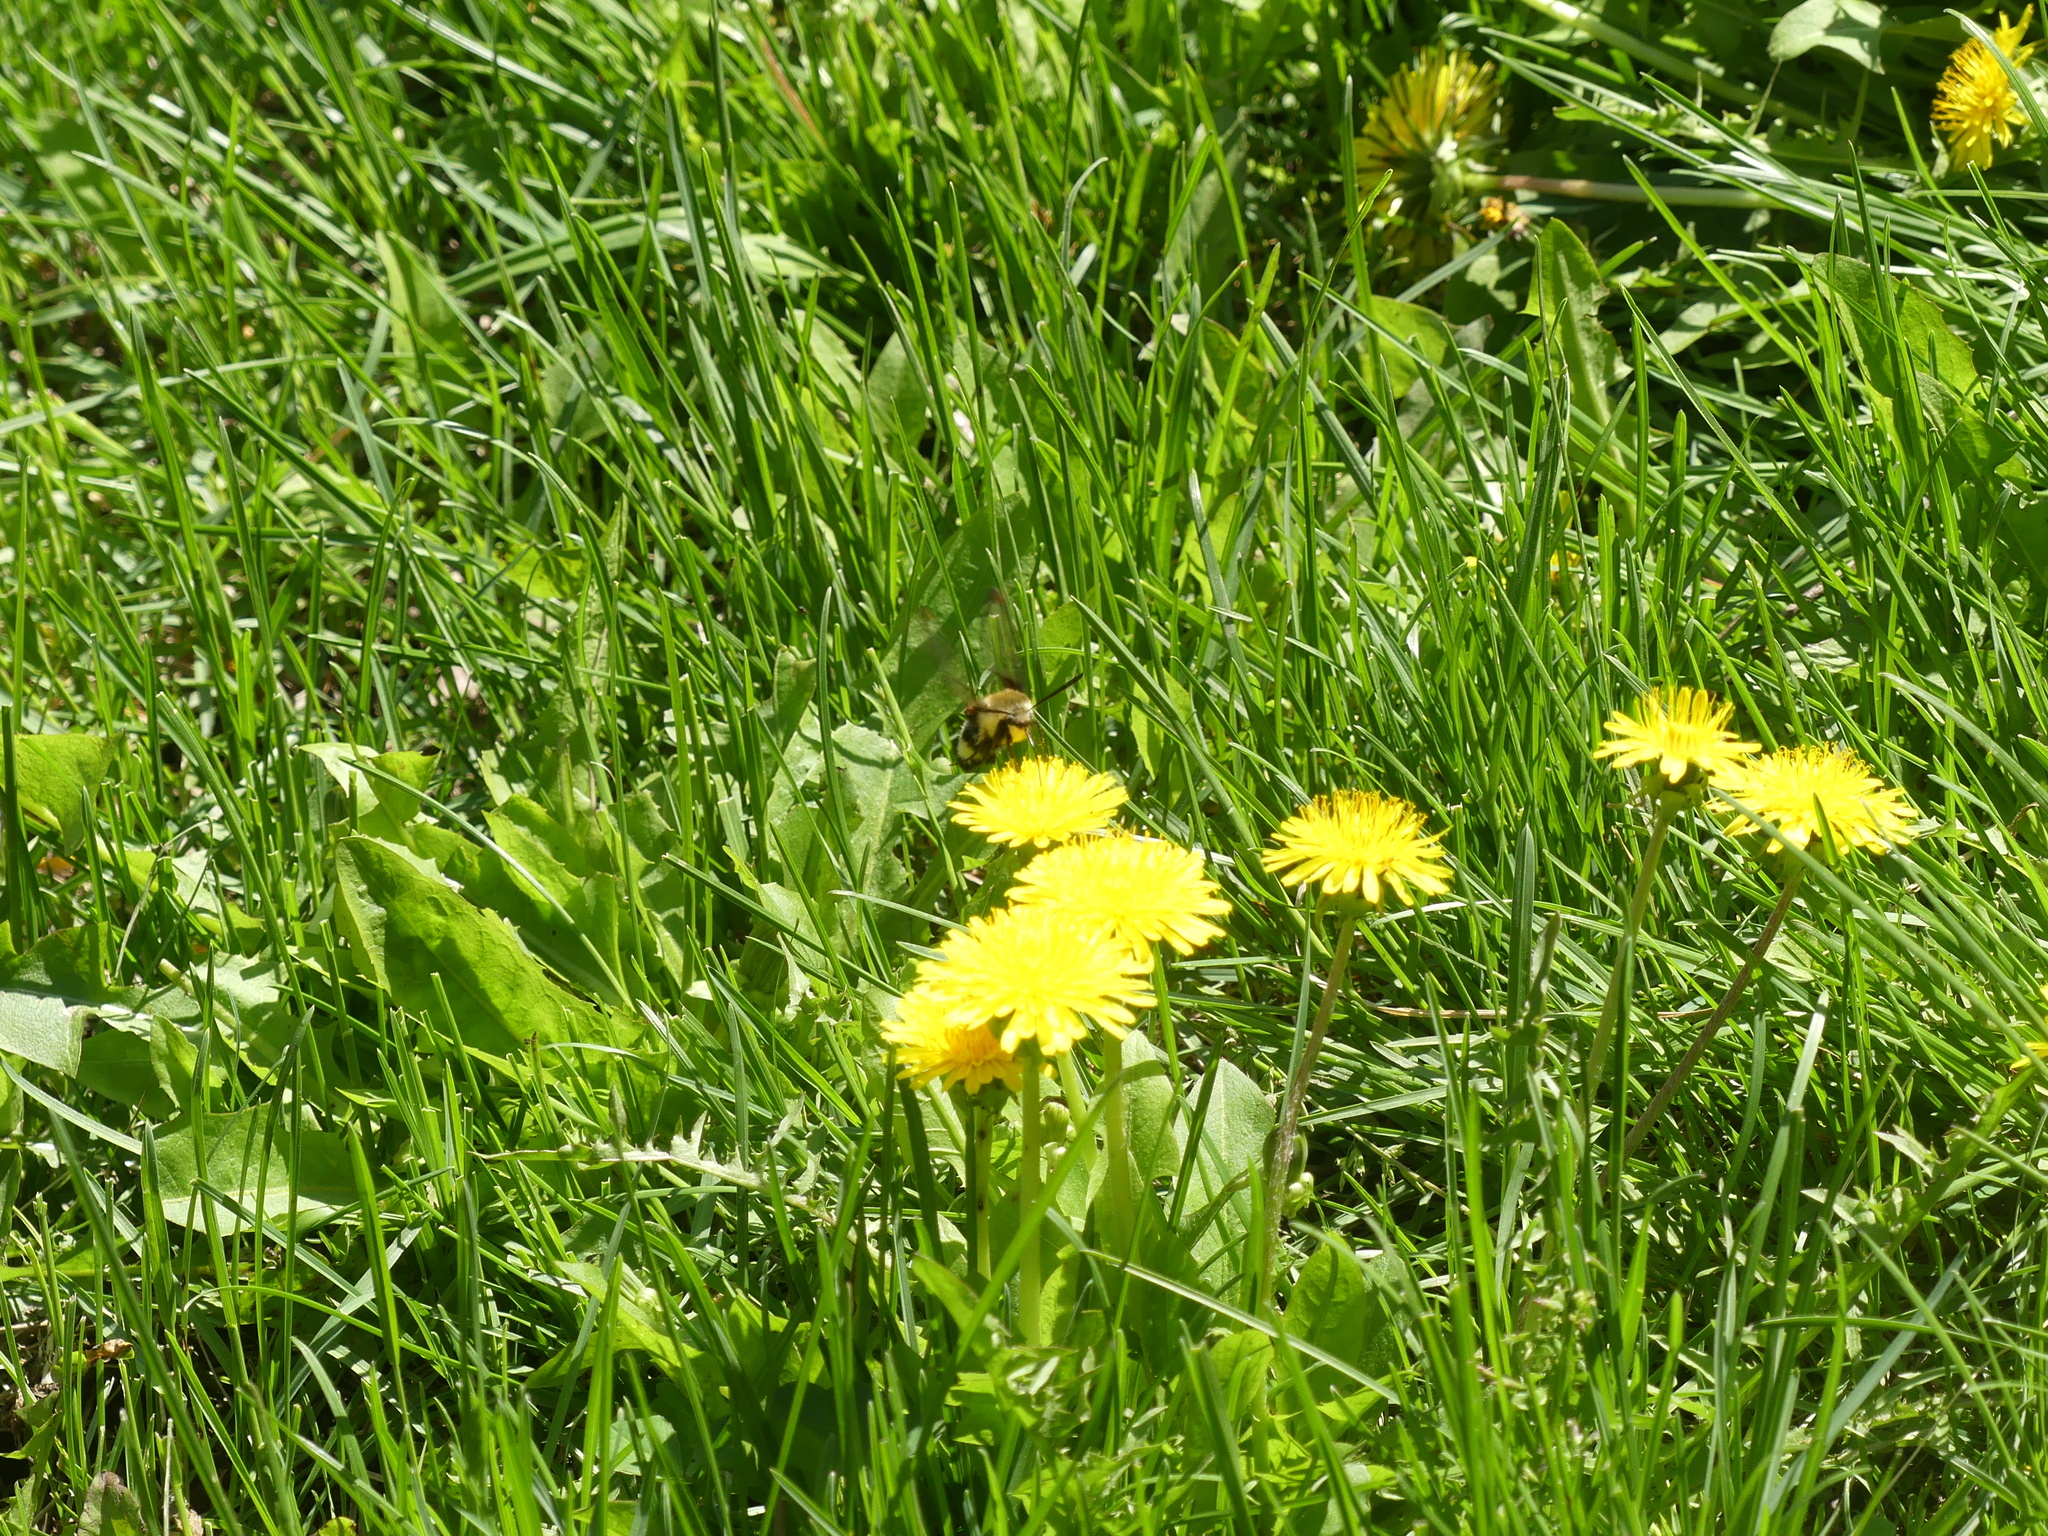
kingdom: Animalia
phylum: Arthropoda
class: Insecta
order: Lepidoptera
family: Sphingidae
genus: Hemaris
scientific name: Hemaris thetis
